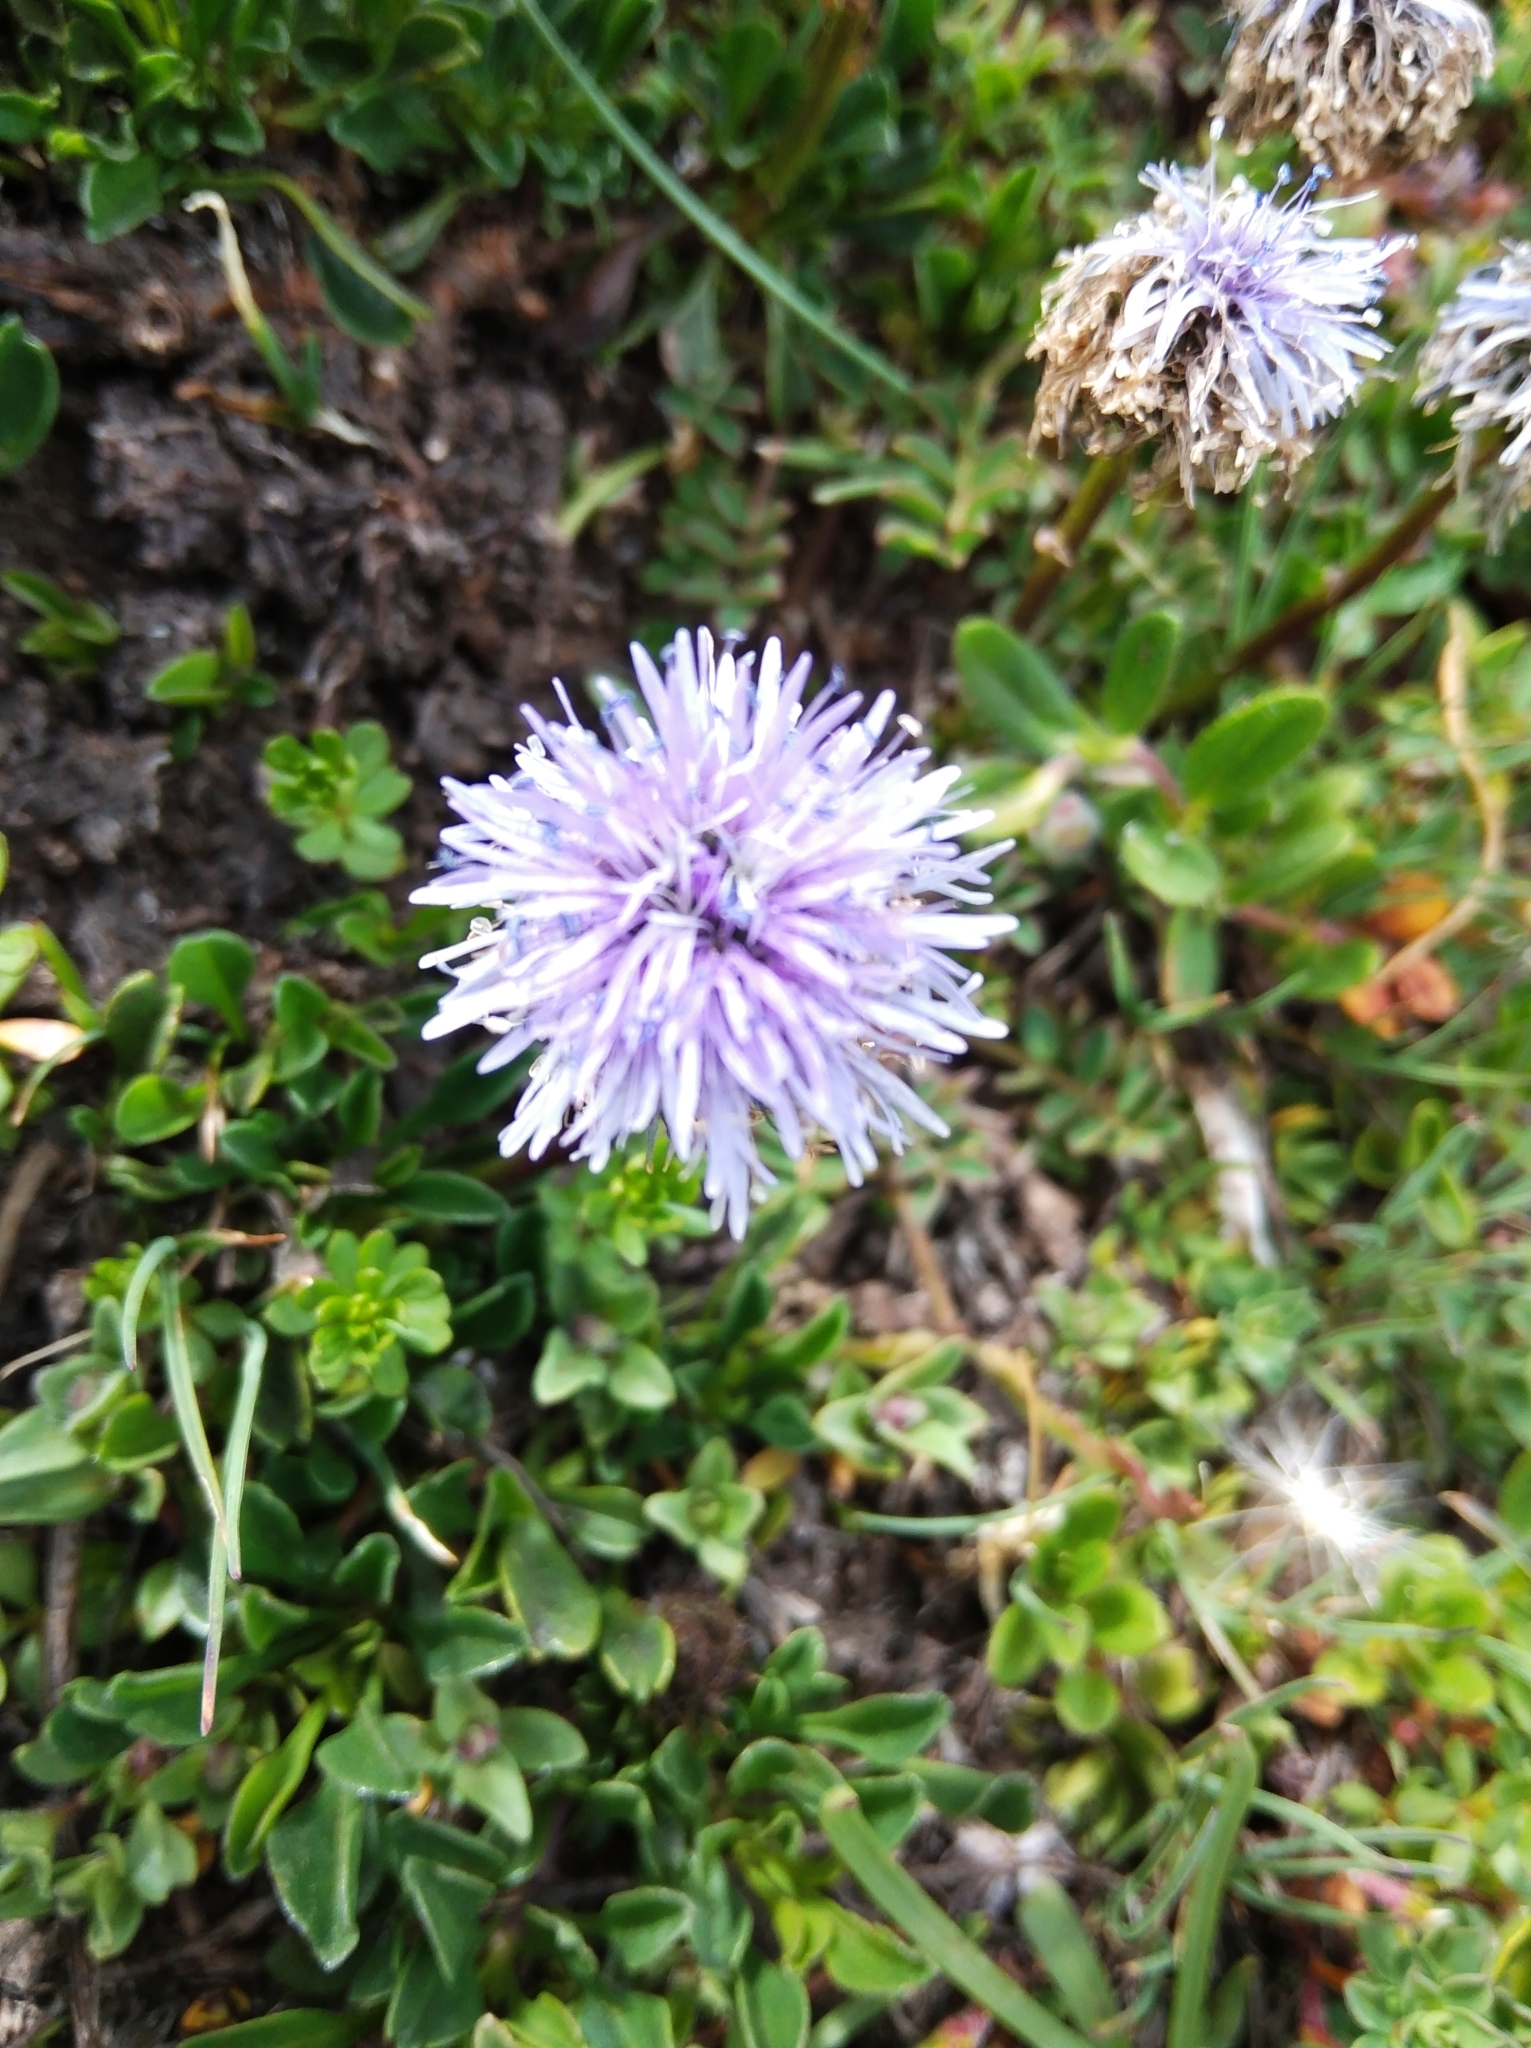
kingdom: Plantae
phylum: Tracheophyta
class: Magnoliopsida
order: Lamiales
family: Plantaginaceae
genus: Globularia
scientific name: Globularia cordifolia
